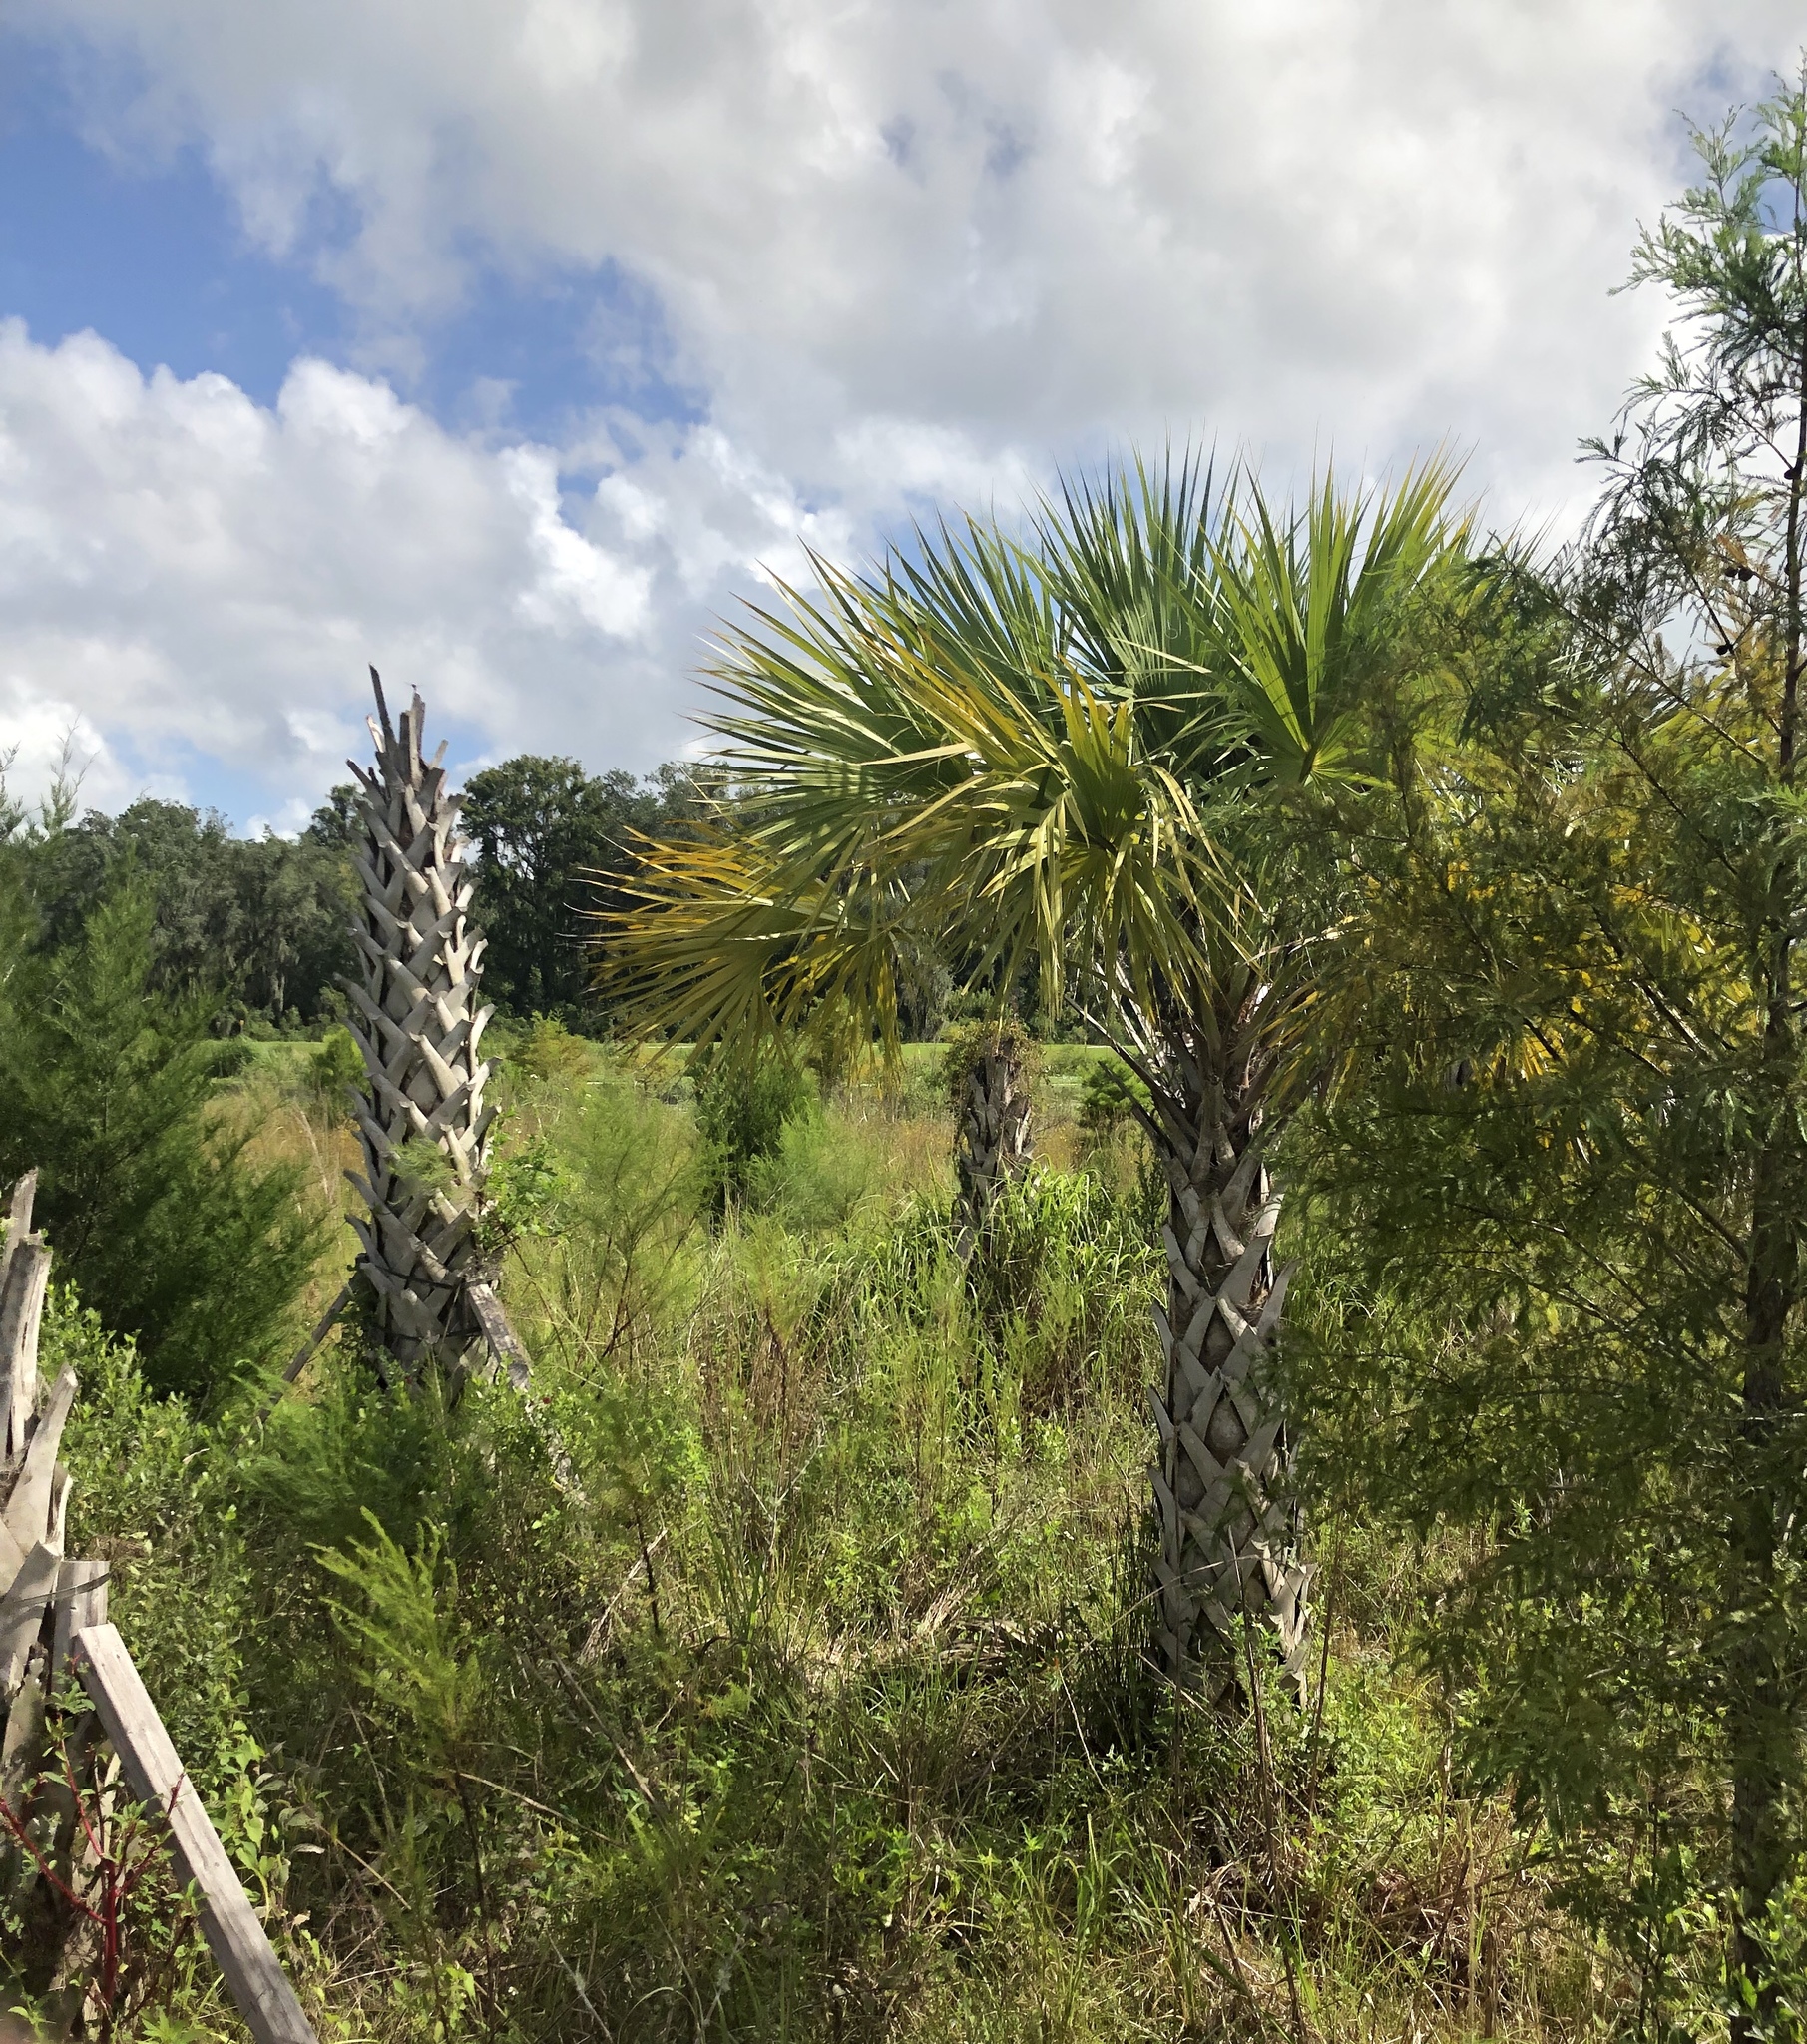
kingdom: Plantae
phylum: Tracheophyta
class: Liliopsida
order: Arecales
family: Arecaceae
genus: Sabal
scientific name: Sabal palmetto
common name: Blue palmetto
